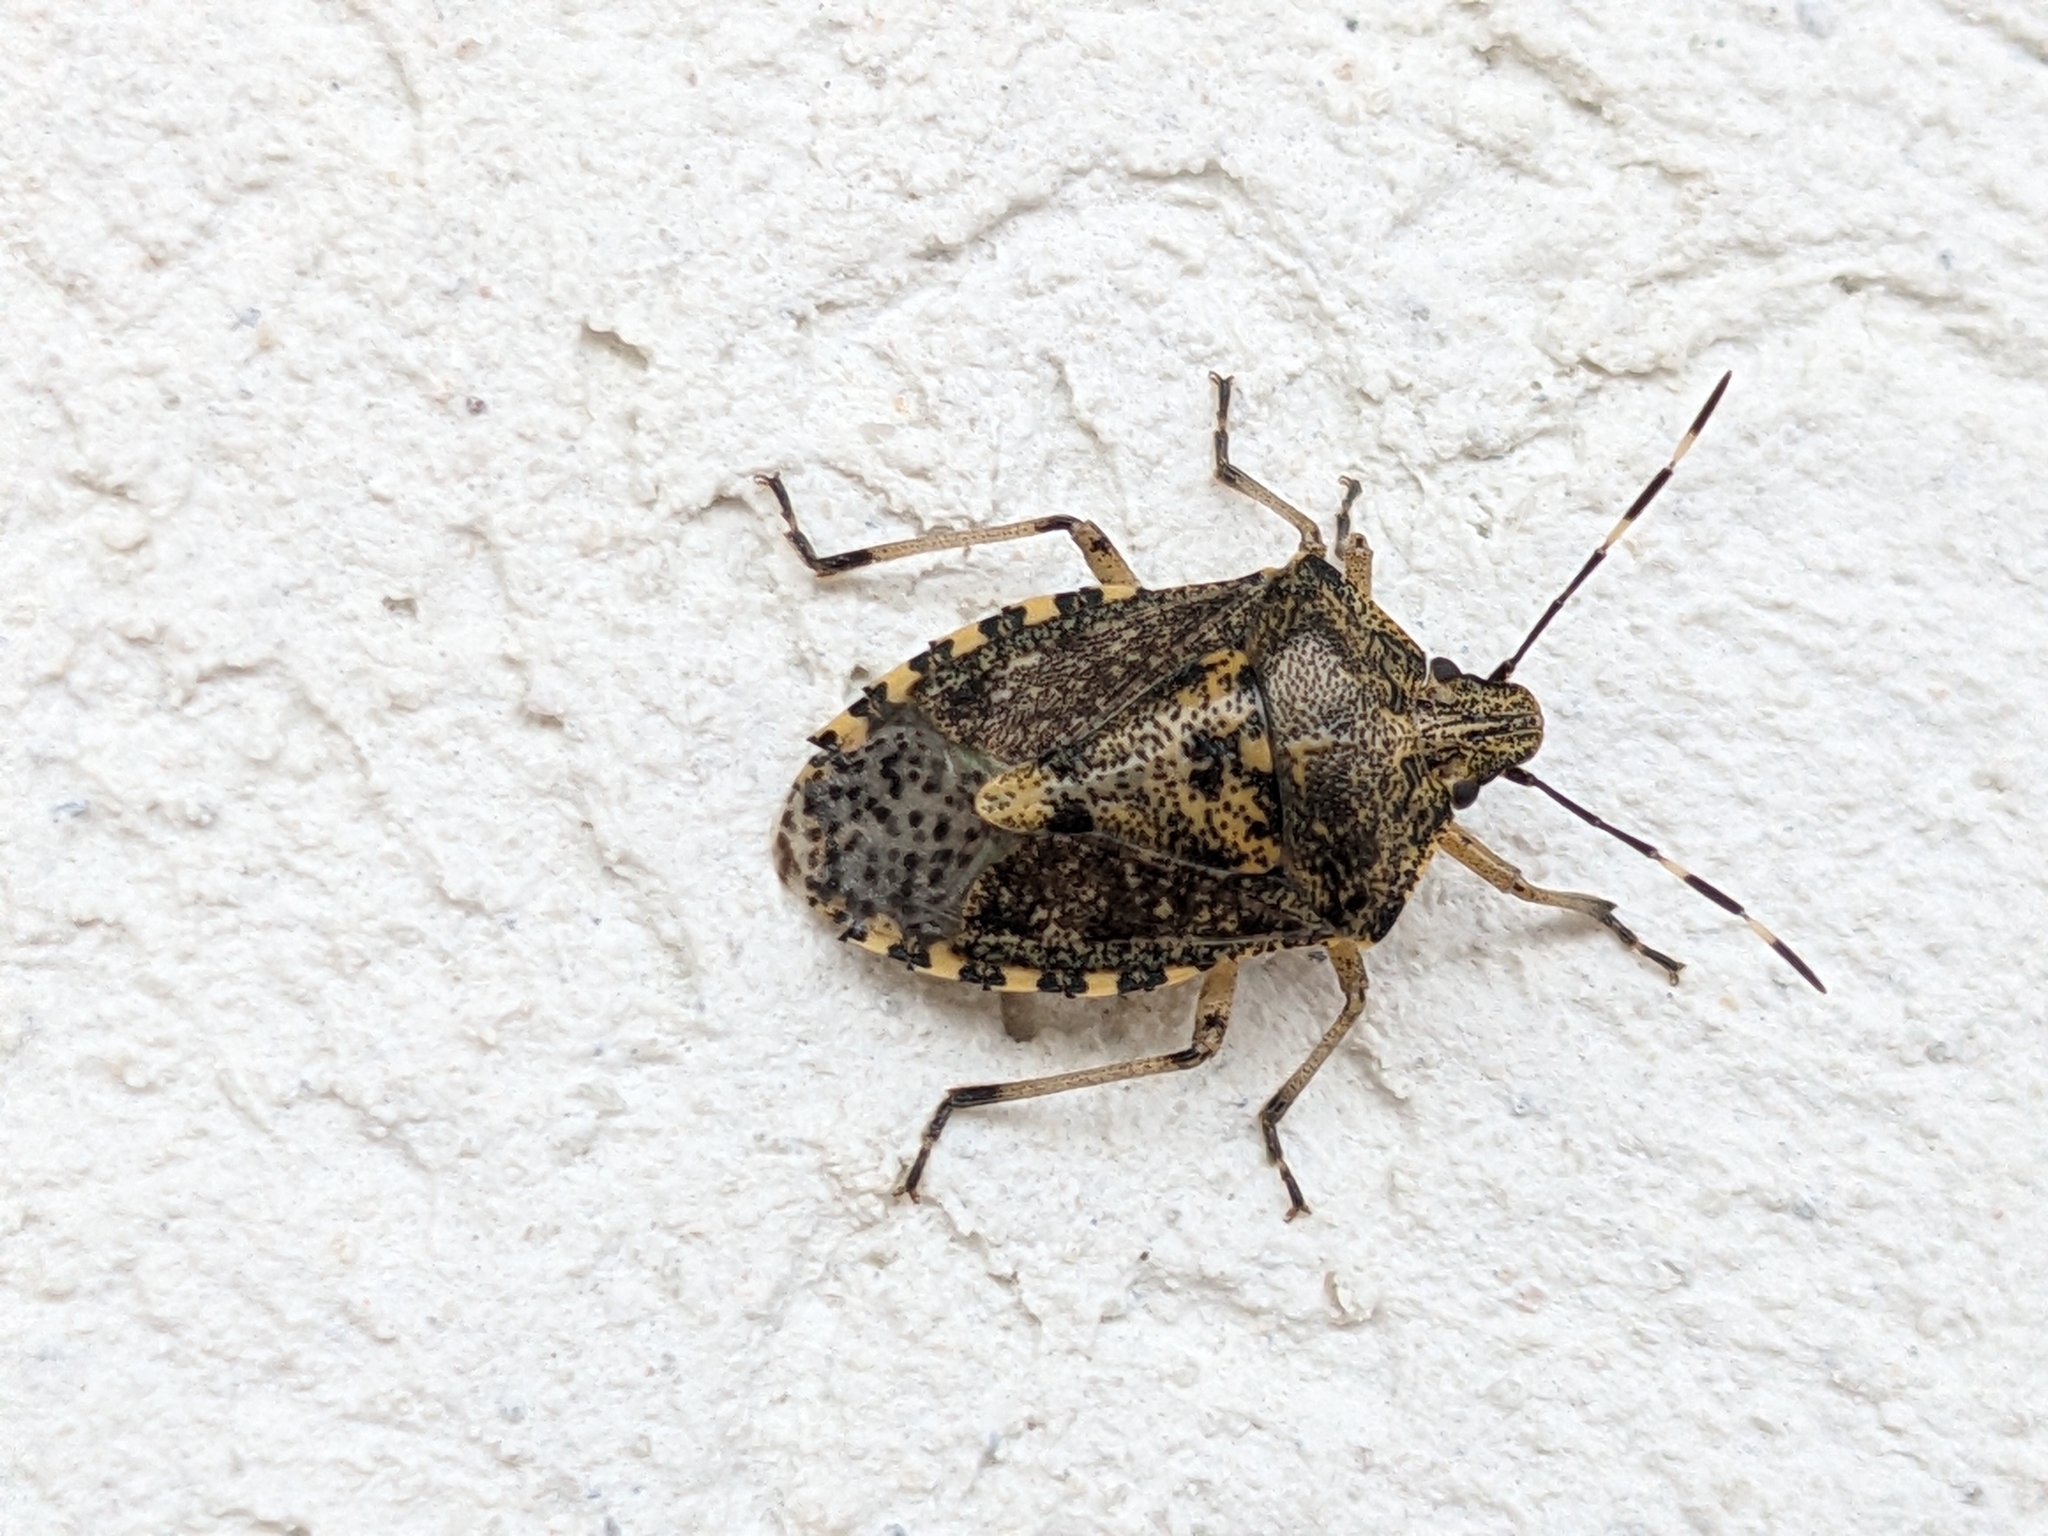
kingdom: Animalia
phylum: Arthropoda
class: Insecta
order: Hemiptera
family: Pentatomidae
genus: Rhaphigaster
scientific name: Rhaphigaster nebulosa
